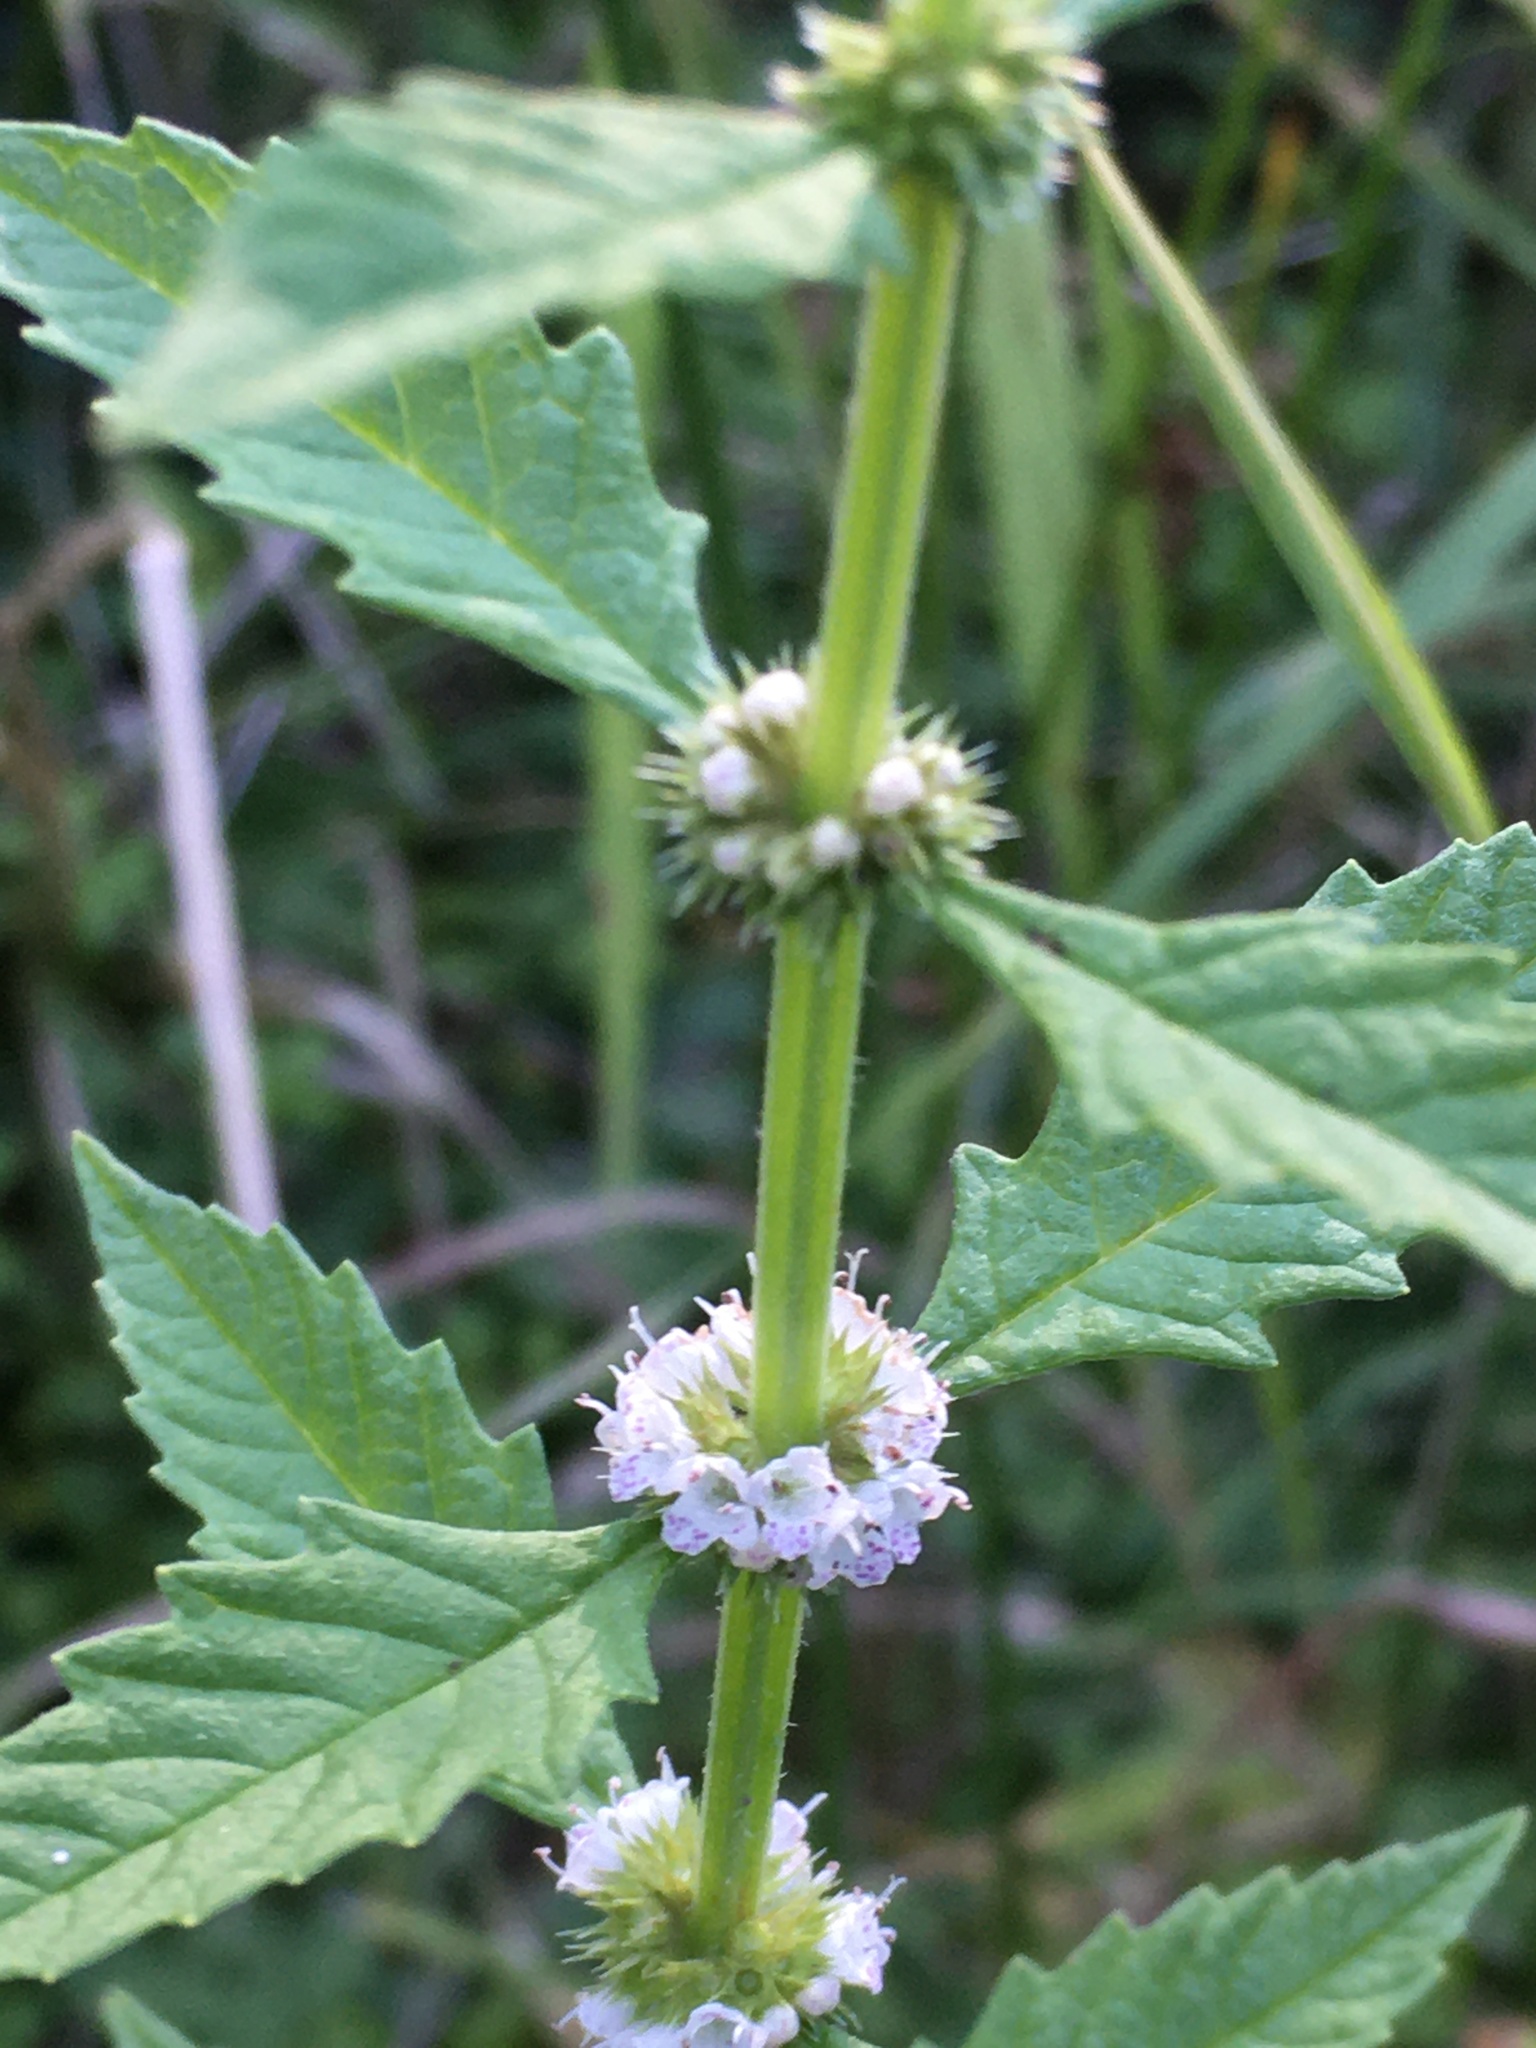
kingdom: Plantae
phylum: Tracheophyta
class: Magnoliopsida
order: Lamiales
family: Lamiaceae
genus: Lycopus
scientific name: Lycopus europaeus
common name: European bugleweed
